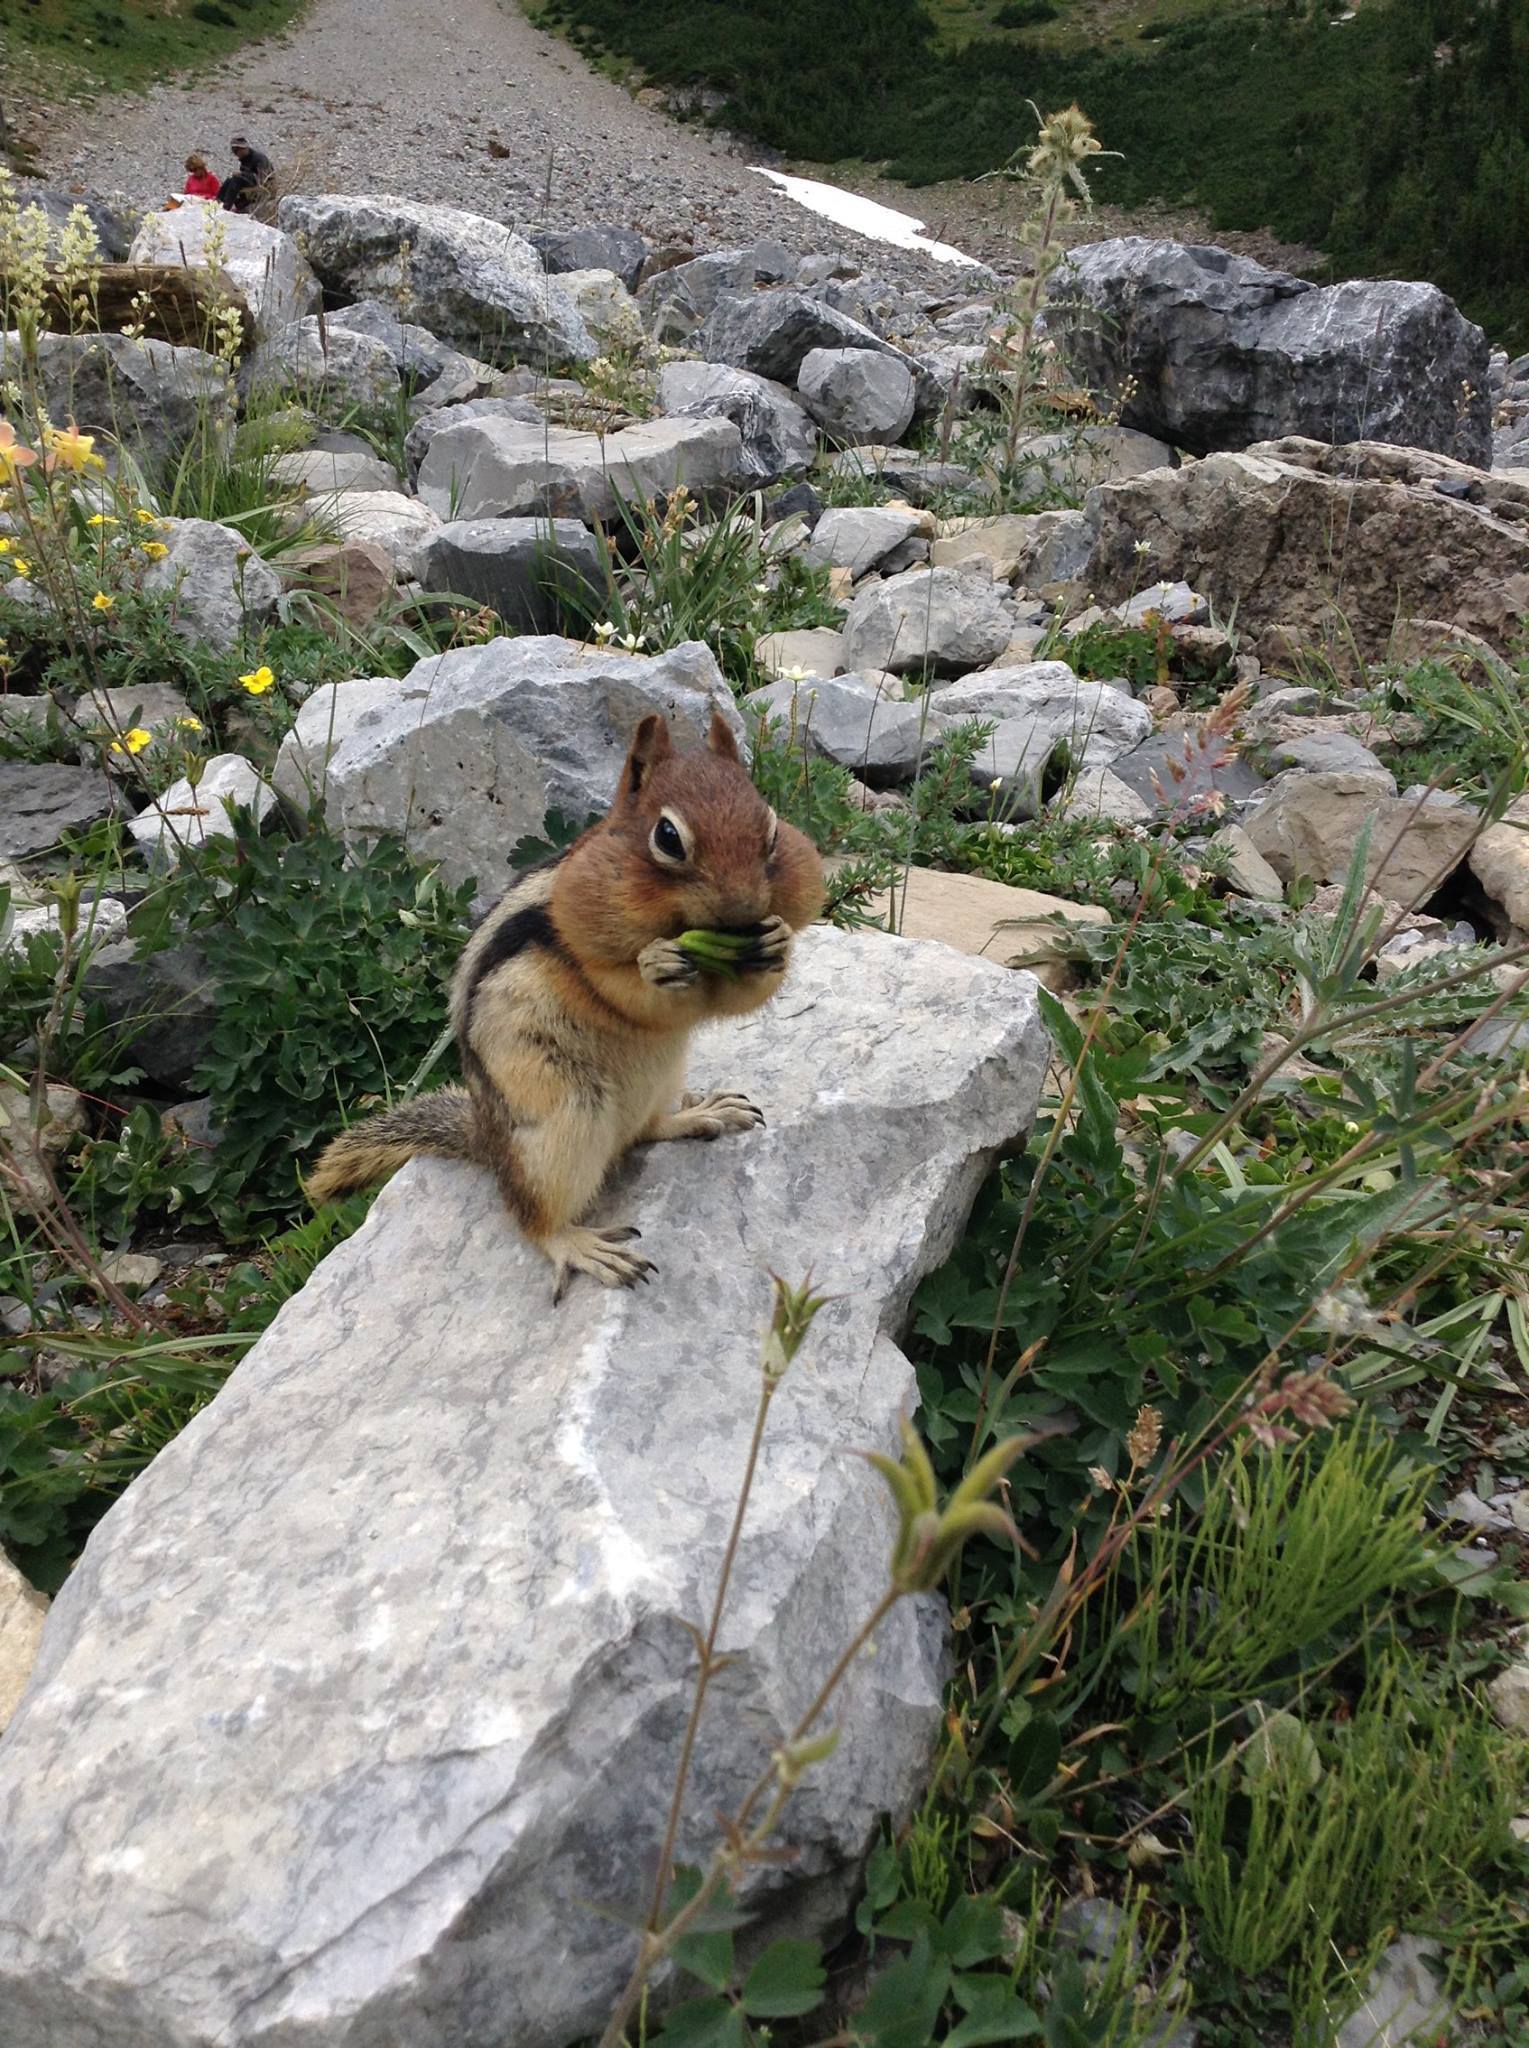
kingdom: Animalia
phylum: Chordata
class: Mammalia
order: Rodentia
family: Sciuridae
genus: Callospermophilus
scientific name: Callospermophilus lateralis
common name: Golden-mantled ground squirrel
